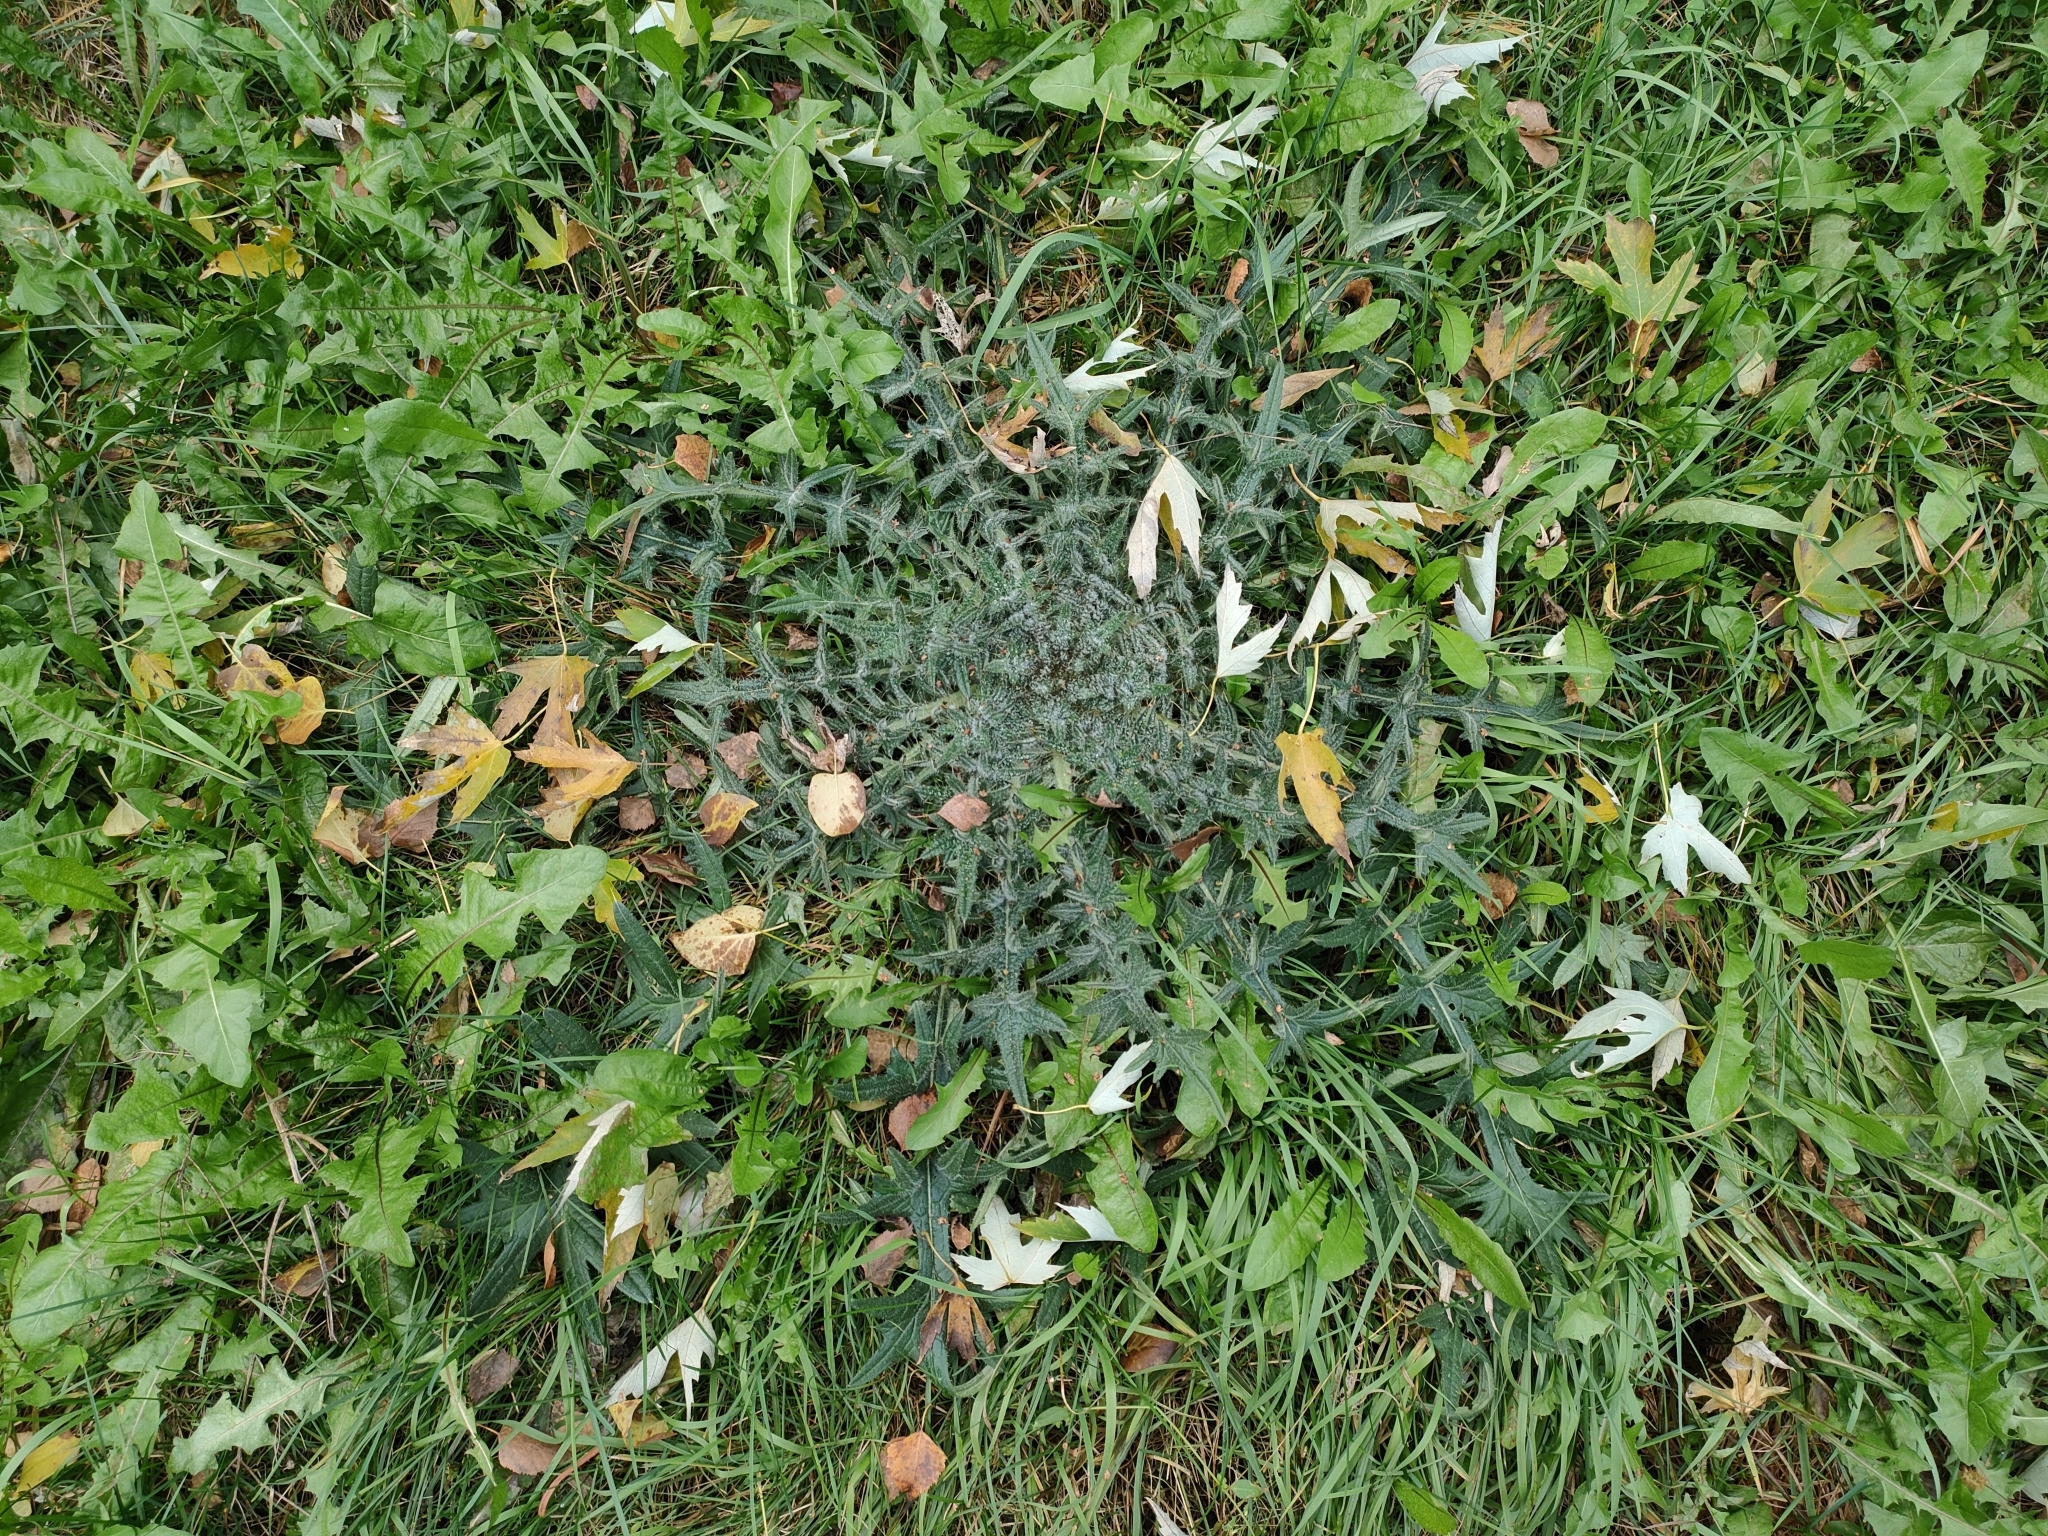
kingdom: Plantae
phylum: Tracheophyta
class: Magnoliopsida
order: Asterales
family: Asteraceae
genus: Cirsium
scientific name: Cirsium vulgare
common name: Bull thistle
